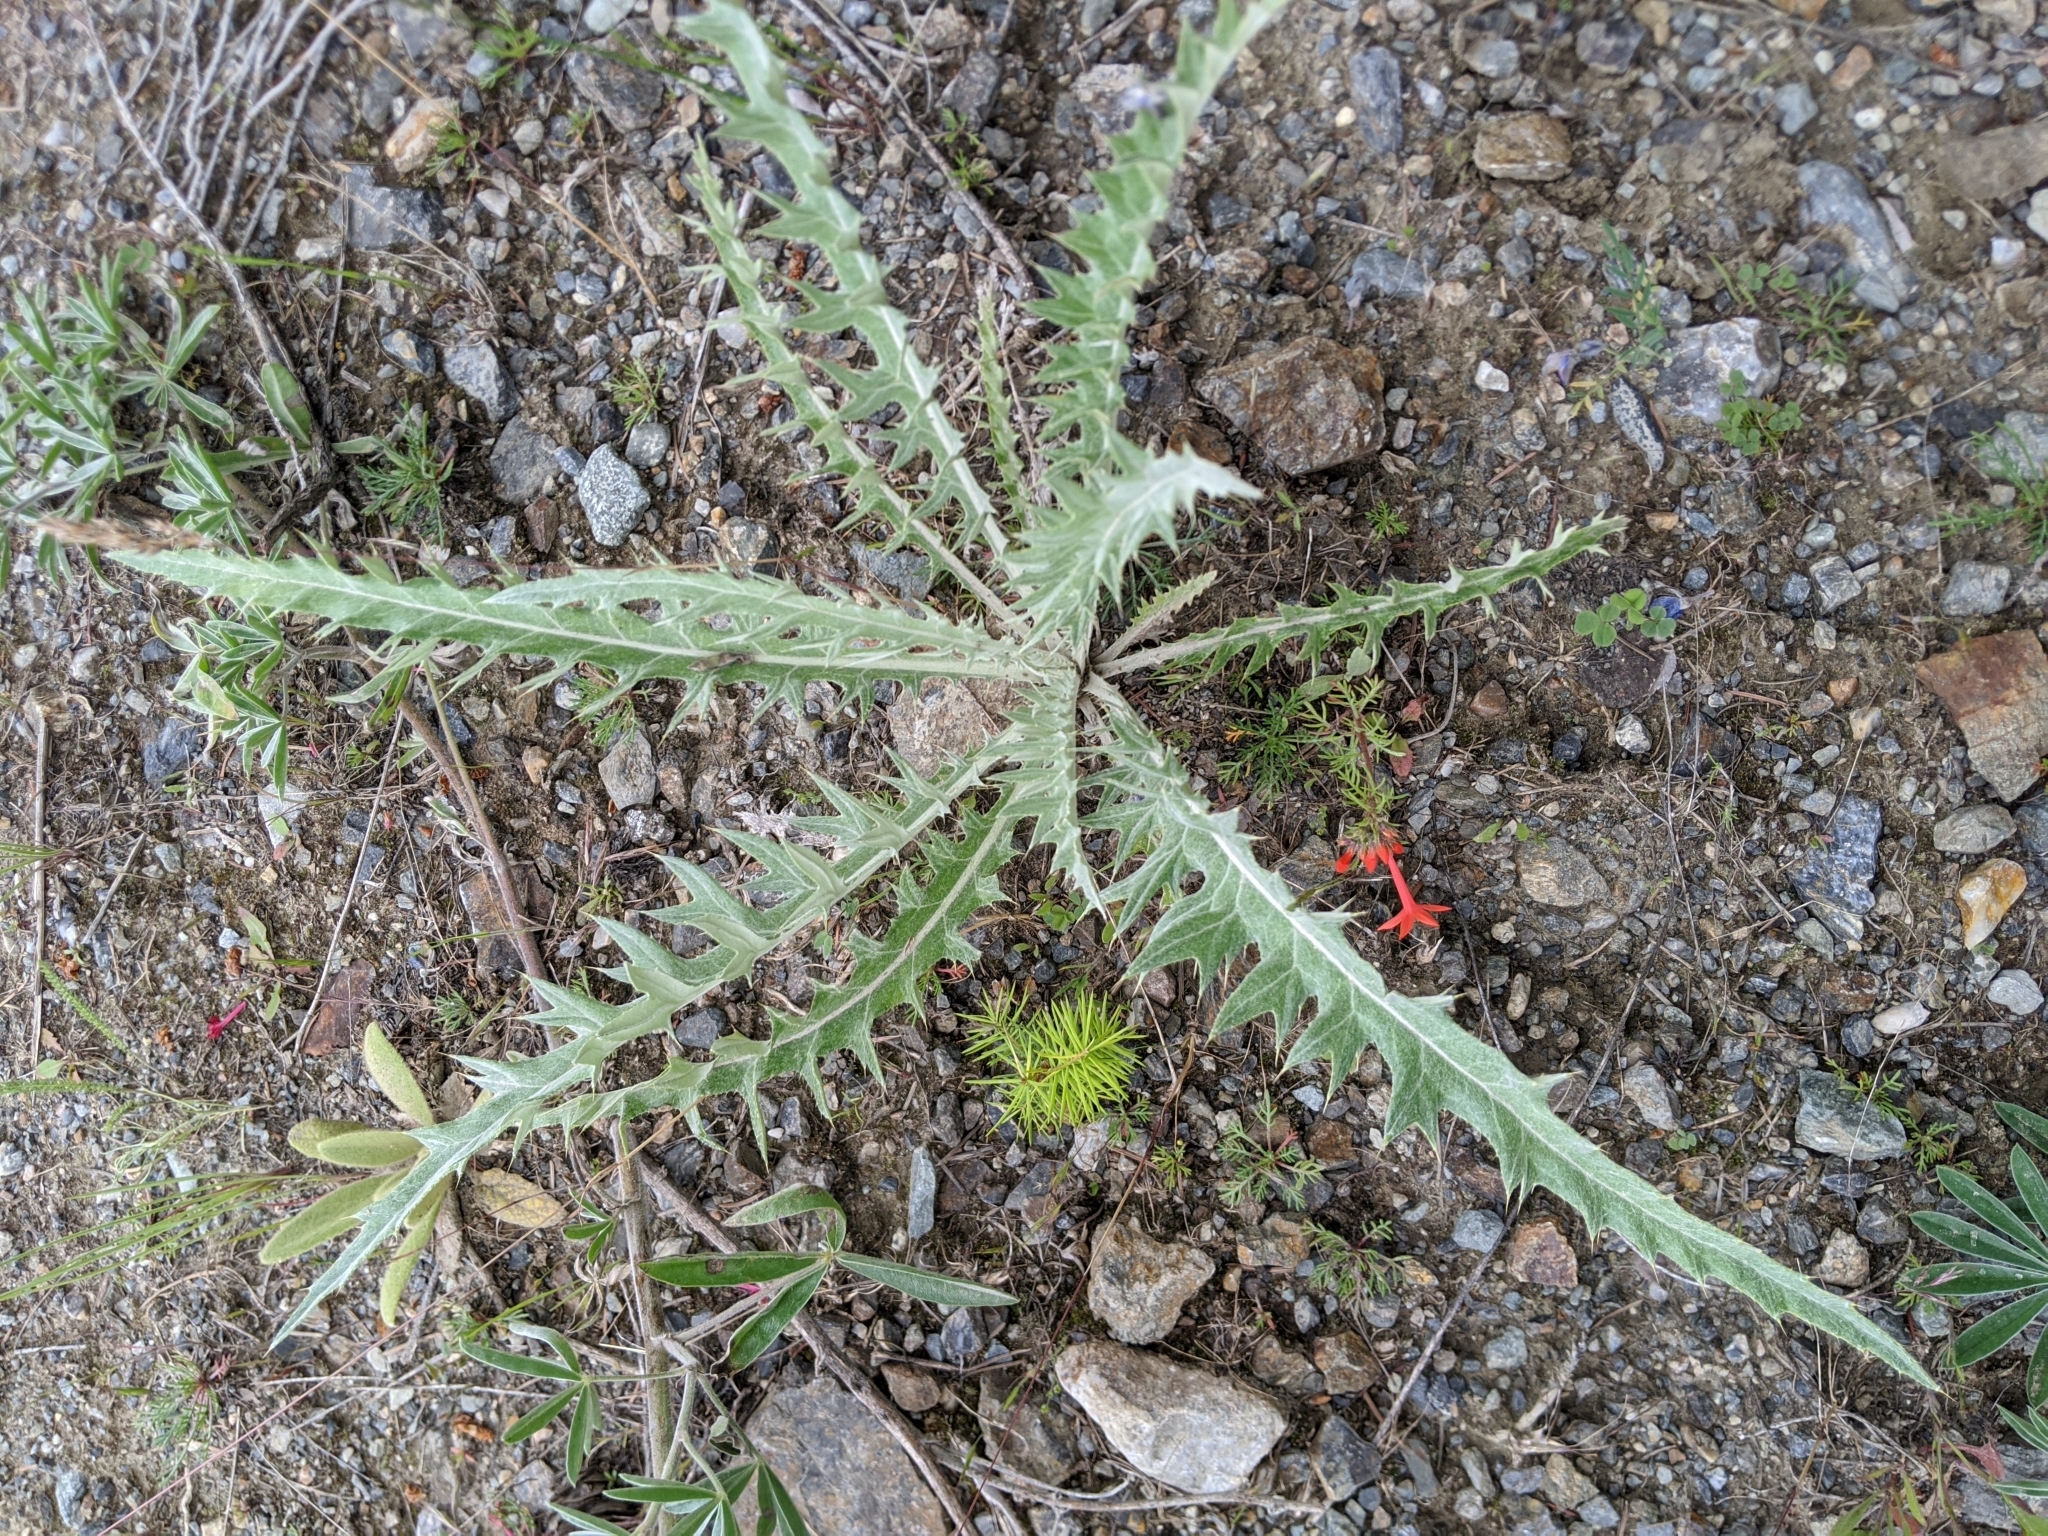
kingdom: Plantae
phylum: Tracheophyta
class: Magnoliopsida
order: Asterales
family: Asteraceae
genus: Cirsium
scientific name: Cirsium undulatum
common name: Pasture thistle
